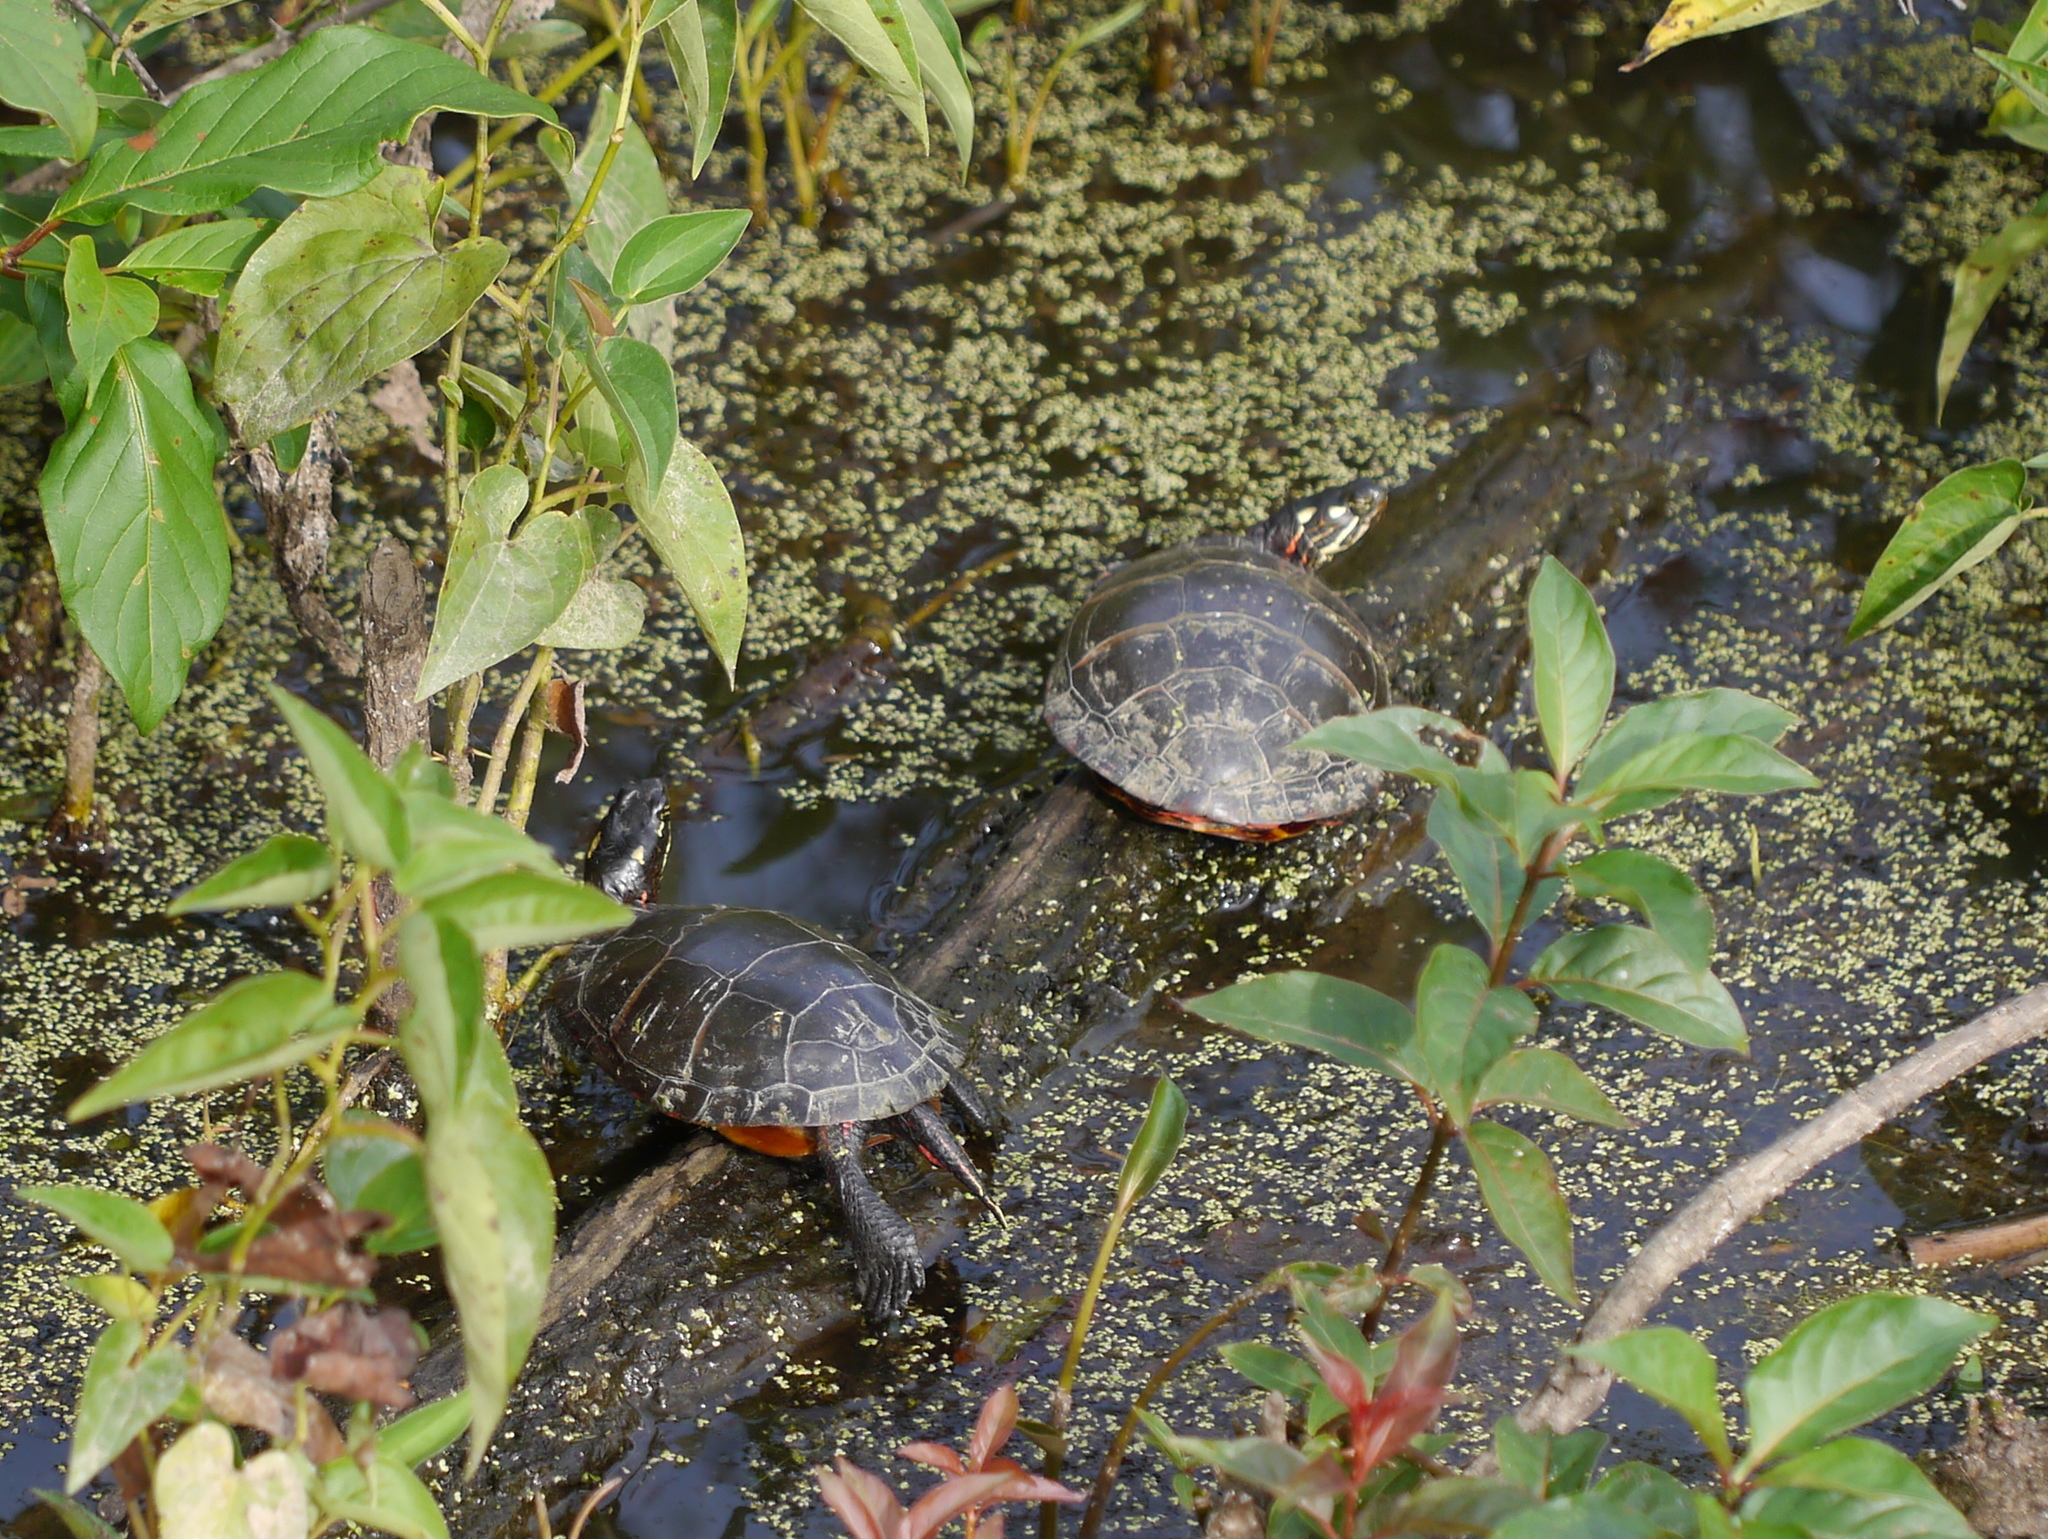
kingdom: Animalia
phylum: Chordata
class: Testudines
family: Emydidae
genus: Chrysemys
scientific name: Chrysemys picta
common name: Painted turtle
